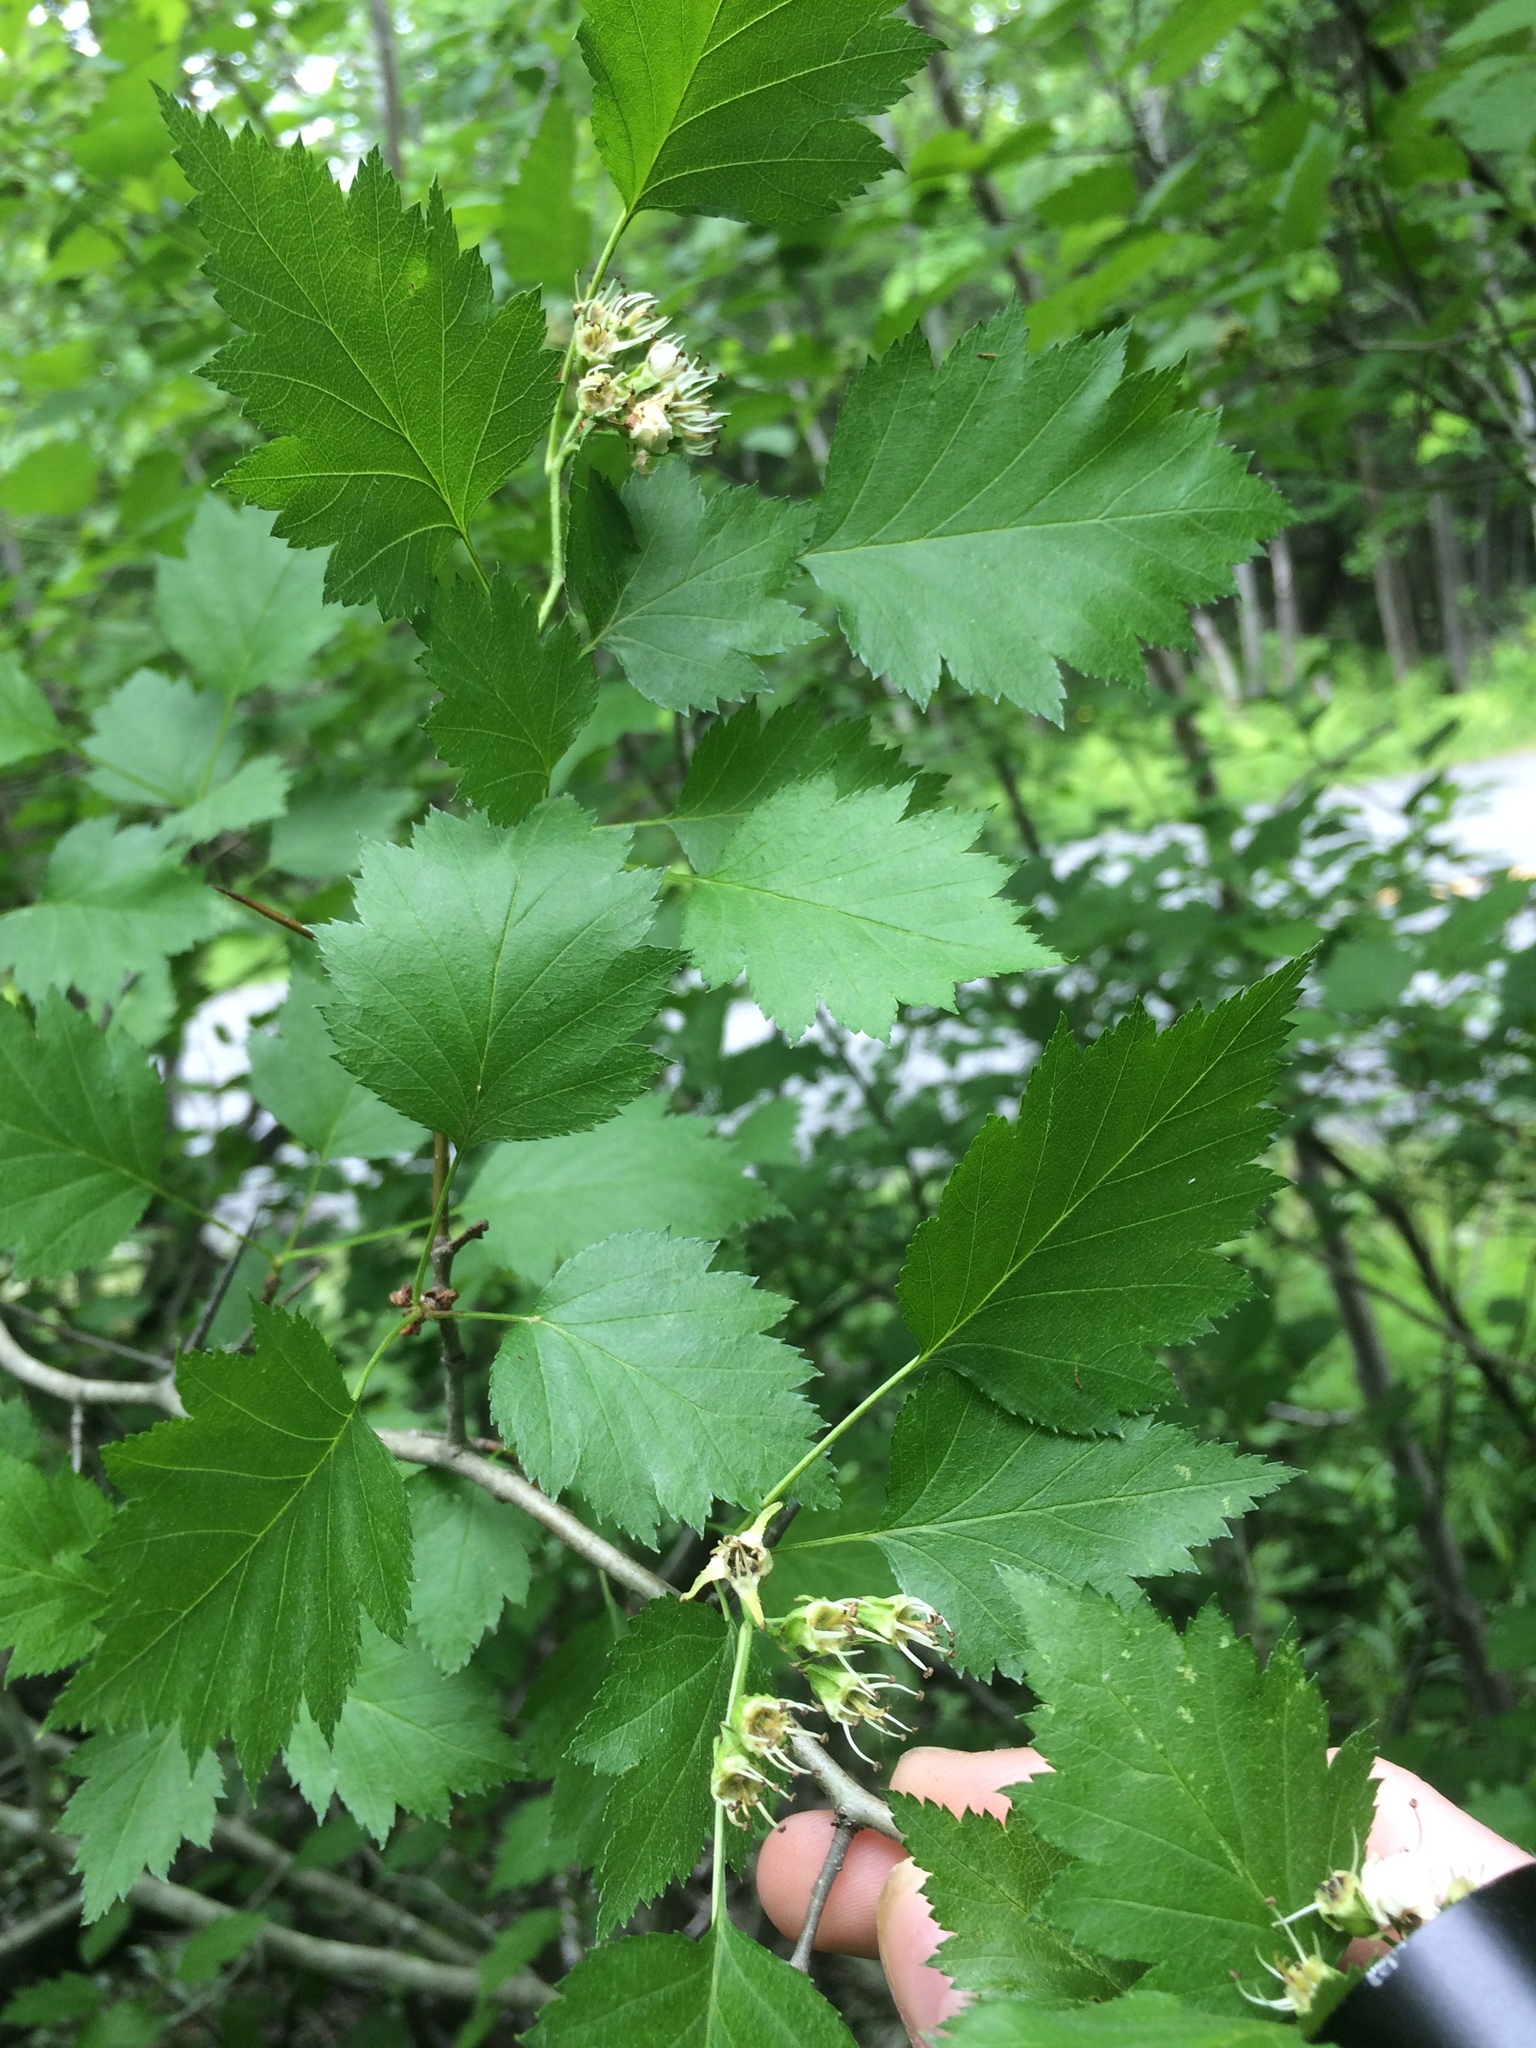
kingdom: Plantae
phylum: Tracheophyta
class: Magnoliopsida
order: Rosales
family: Rosaceae
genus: Crataegus
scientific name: Crataegus flabellata
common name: Bosc's hawthorn
